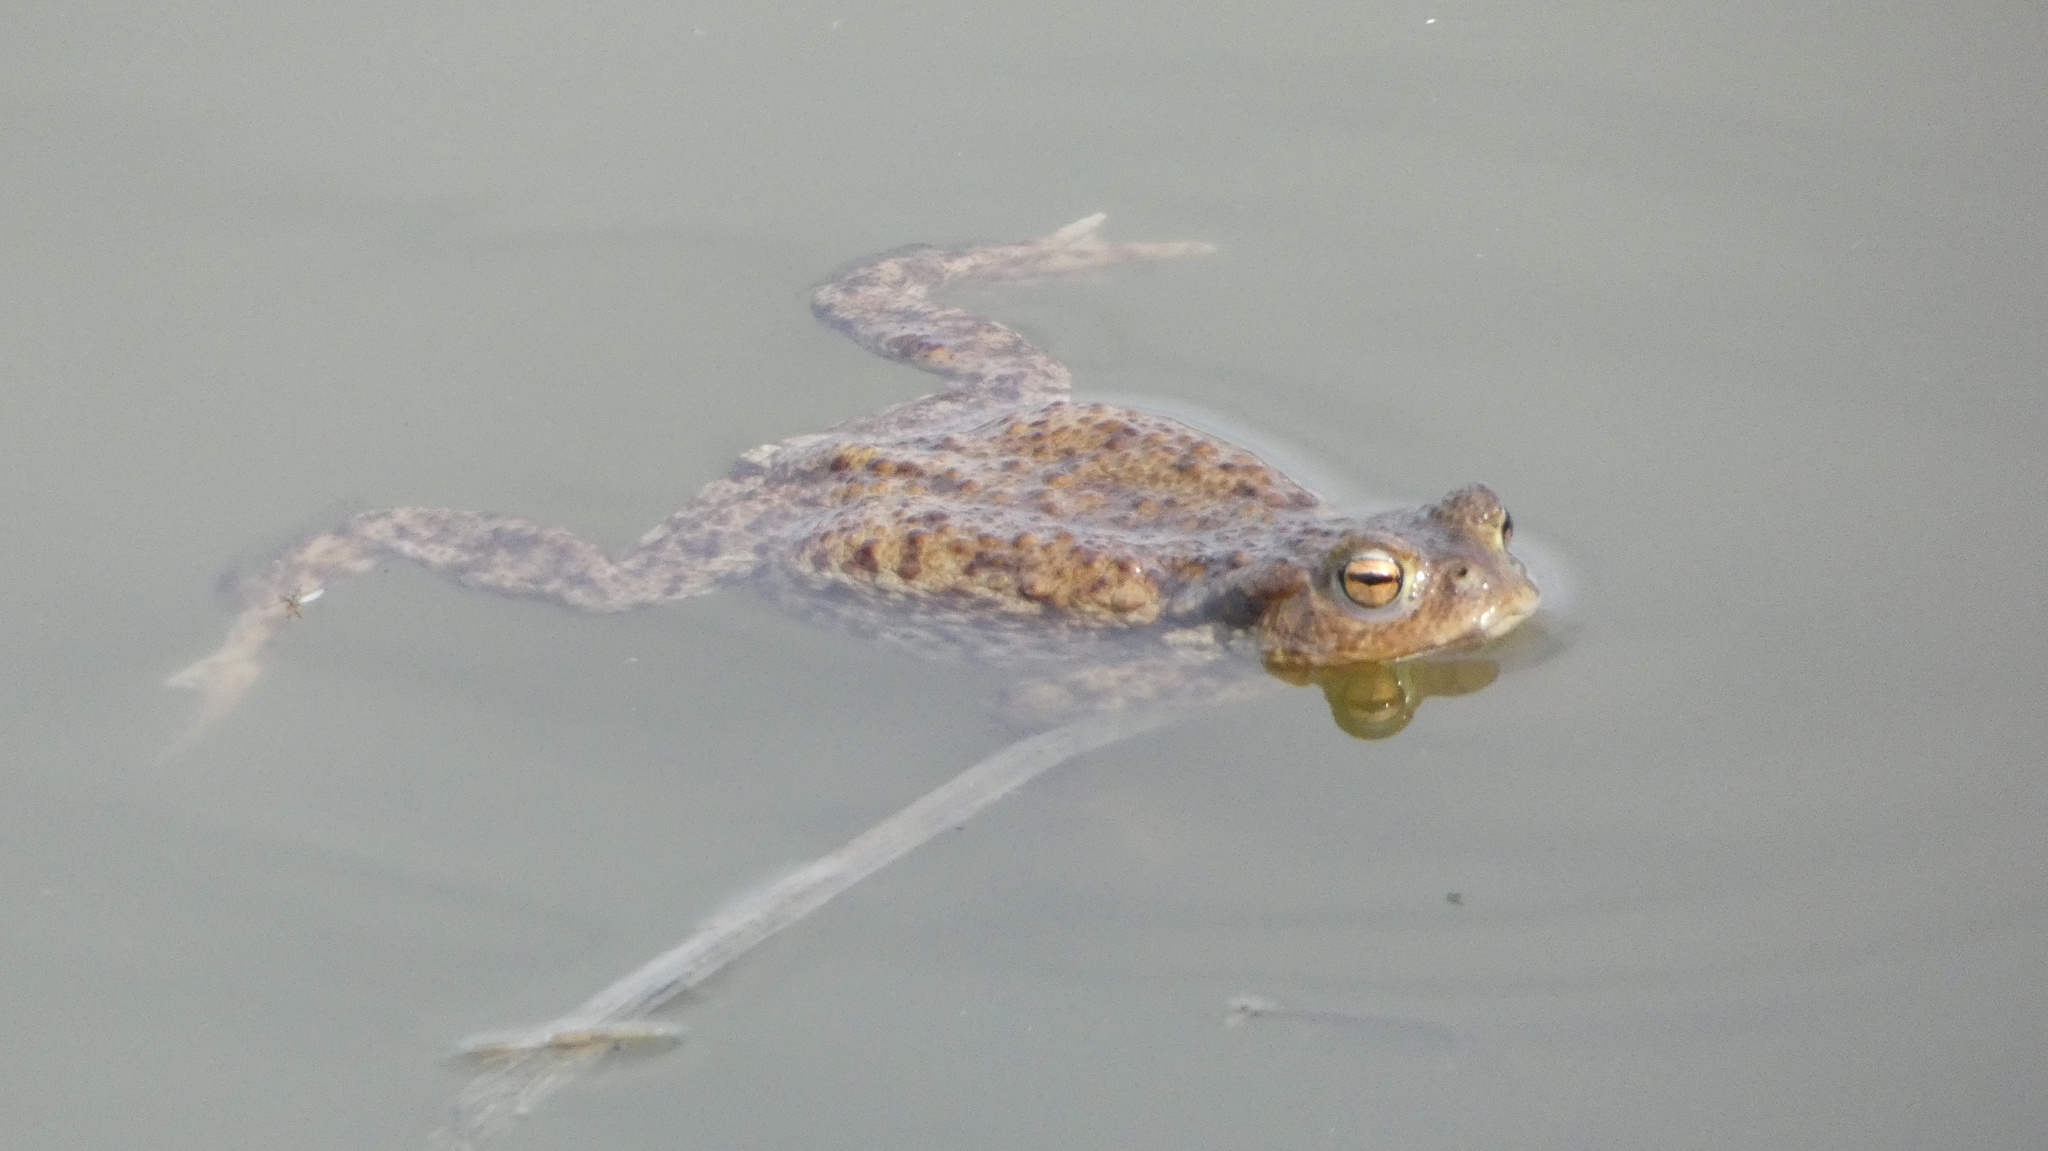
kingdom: Animalia
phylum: Chordata
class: Amphibia
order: Anura
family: Bufonidae
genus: Bufo
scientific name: Bufo bufo
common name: Common toad
